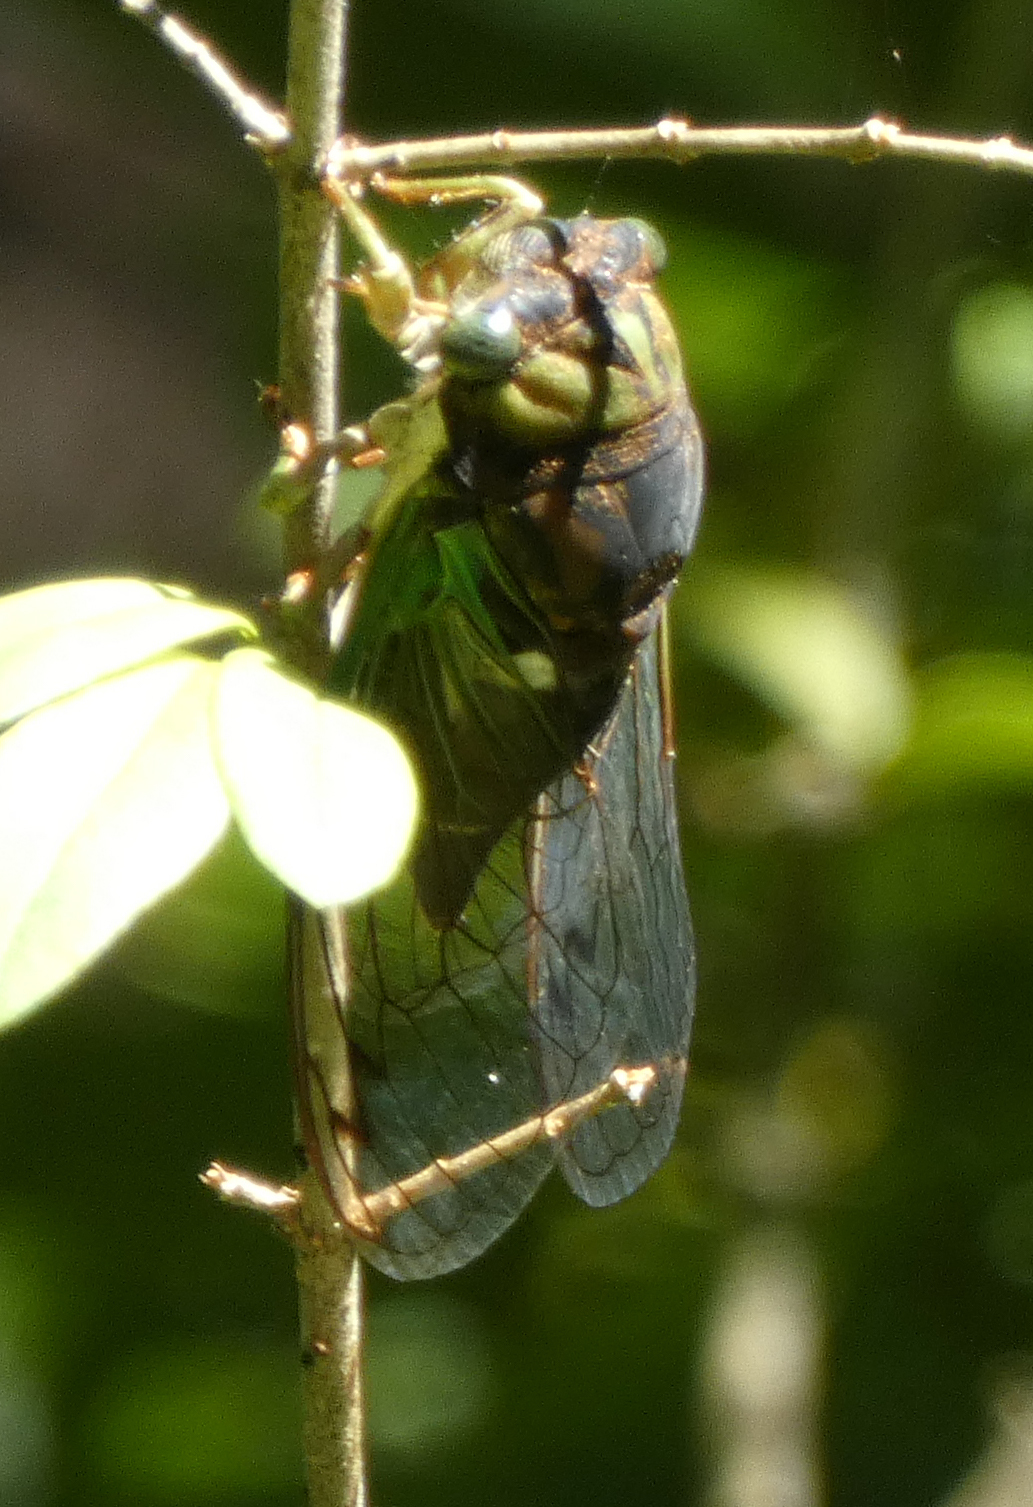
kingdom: Animalia
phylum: Arthropoda
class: Insecta
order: Hemiptera
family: Cicadidae
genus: Neotibicen
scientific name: Neotibicen tibicen
